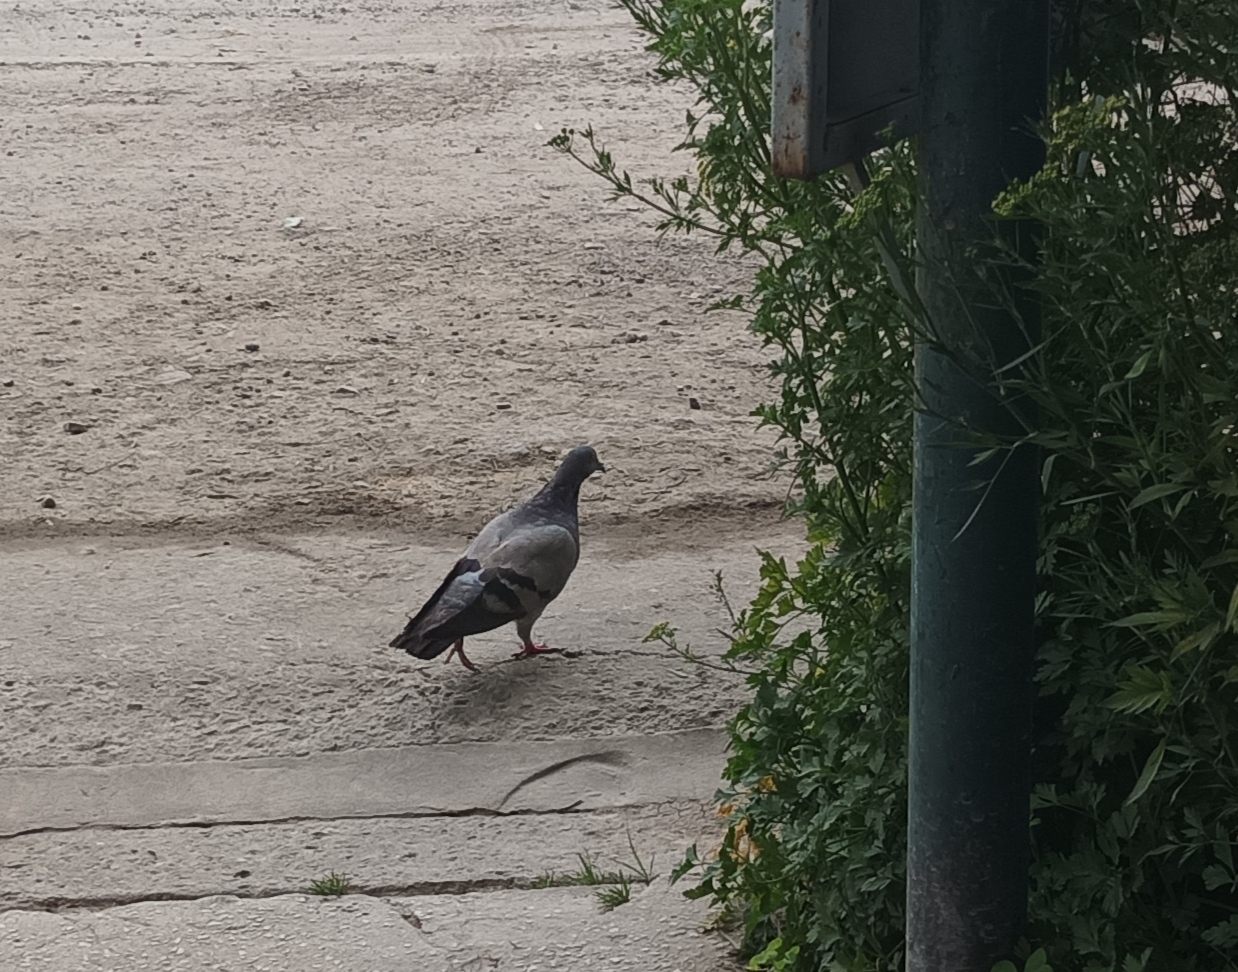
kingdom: Animalia
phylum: Chordata
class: Aves
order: Columbiformes
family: Columbidae
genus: Columba
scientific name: Columba livia
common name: Rock pigeon
